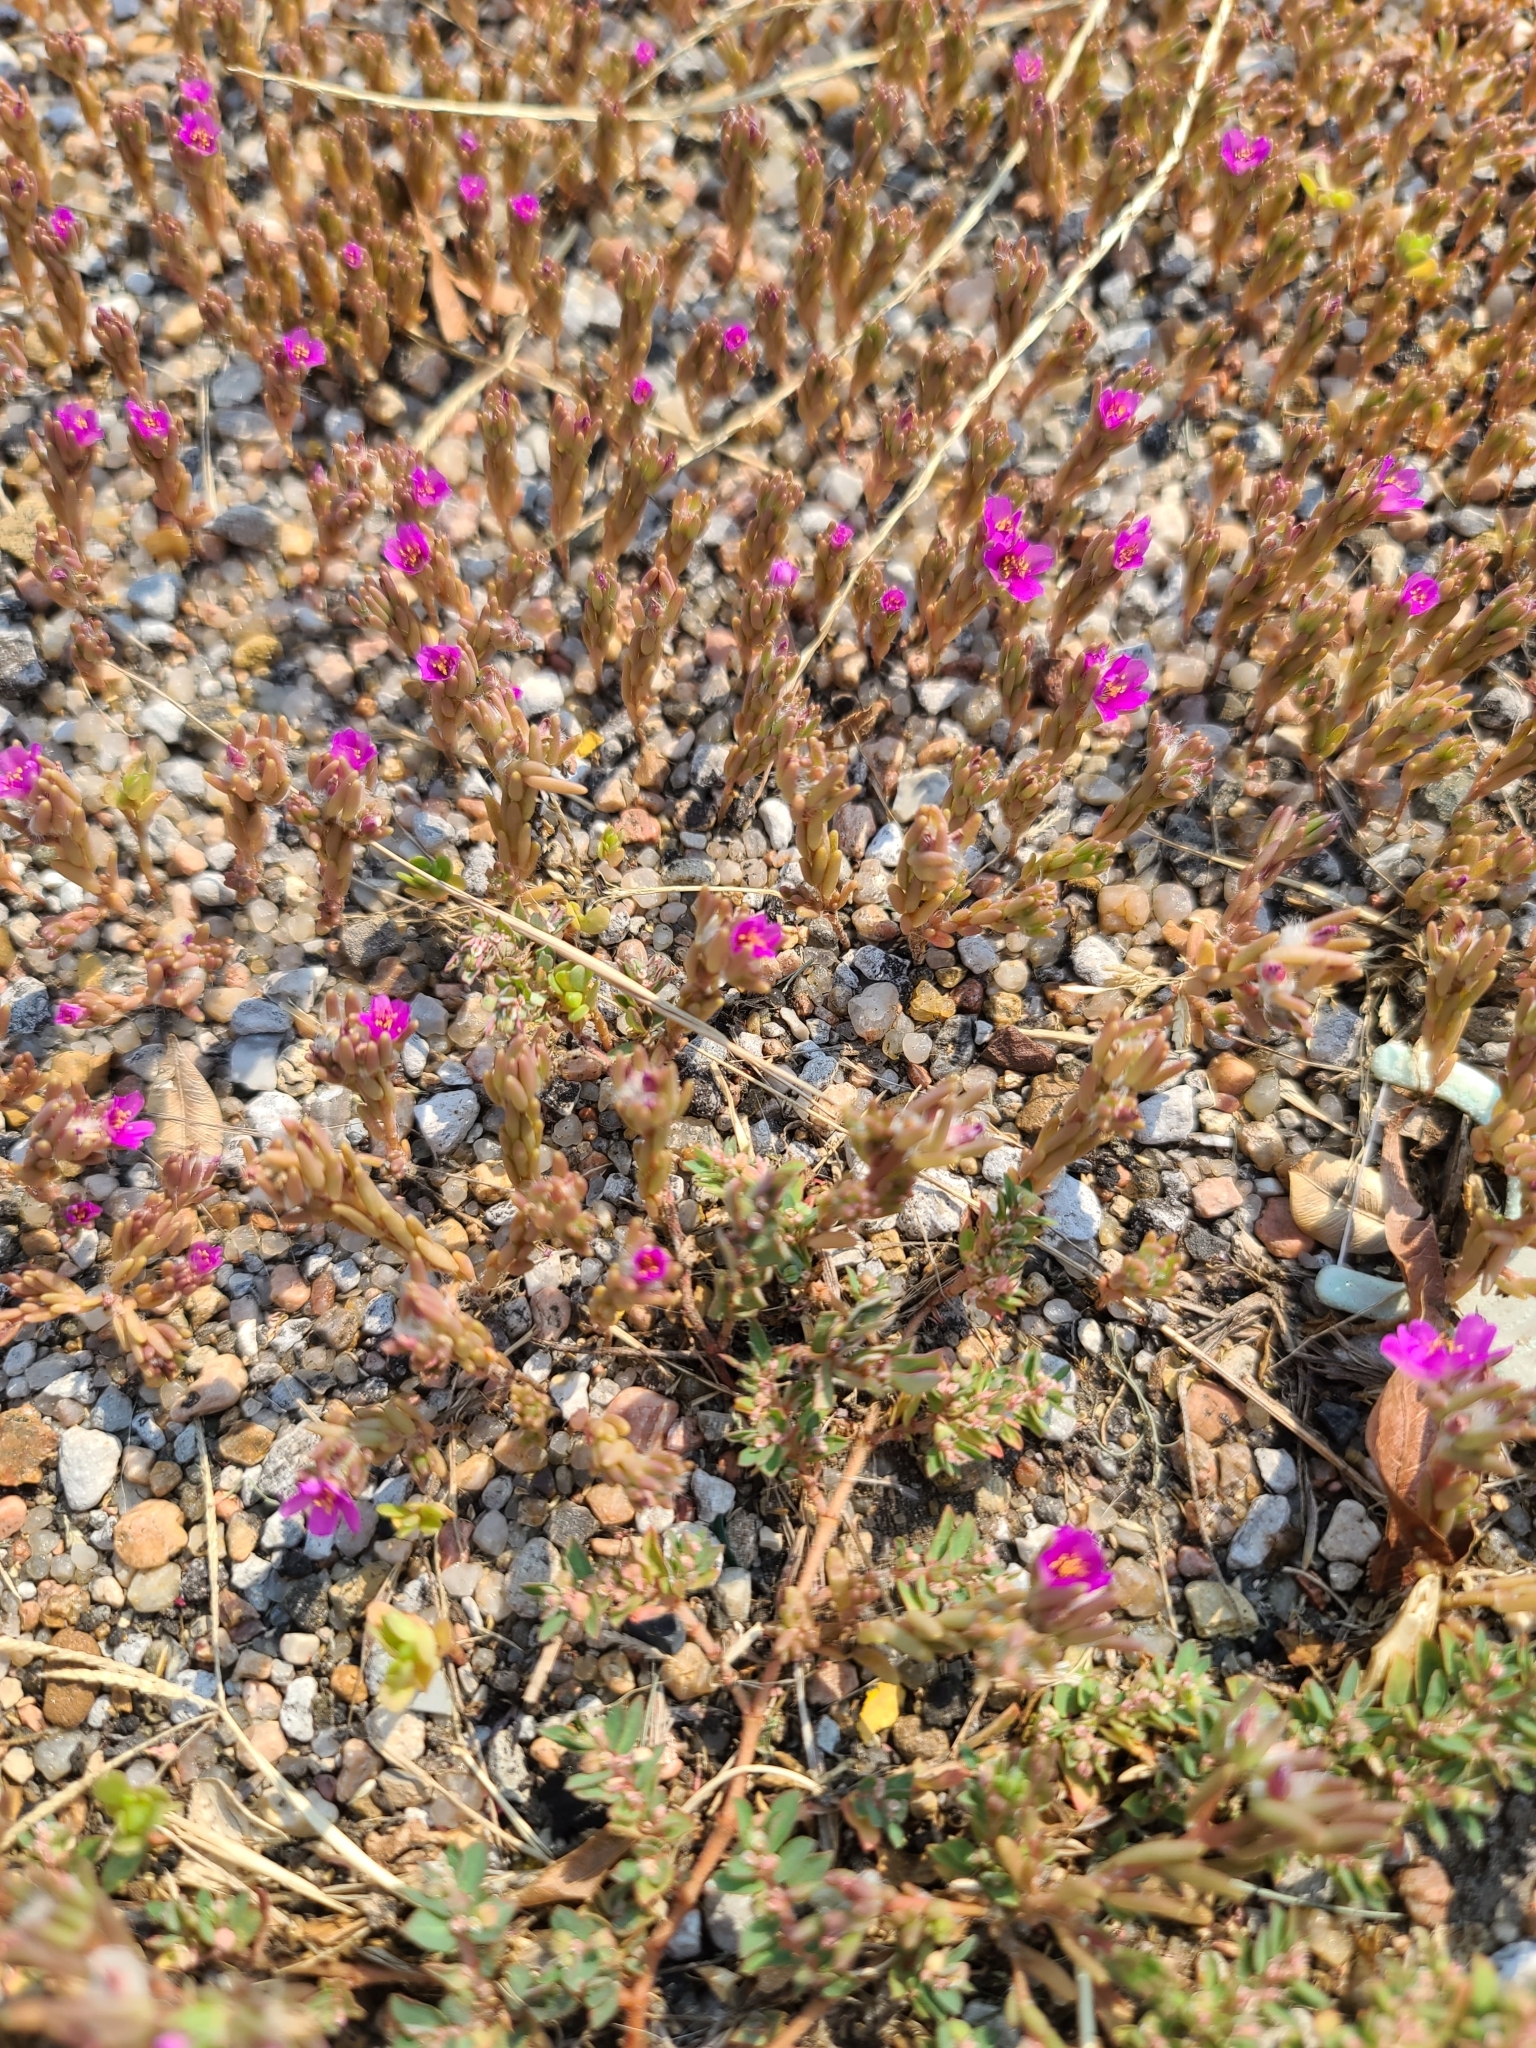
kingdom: Plantae
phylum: Tracheophyta
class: Magnoliopsida
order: Caryophyllales
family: Portulacaceae
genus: Portulaca
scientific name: Portulaca pilosa
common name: Kiss me quick
